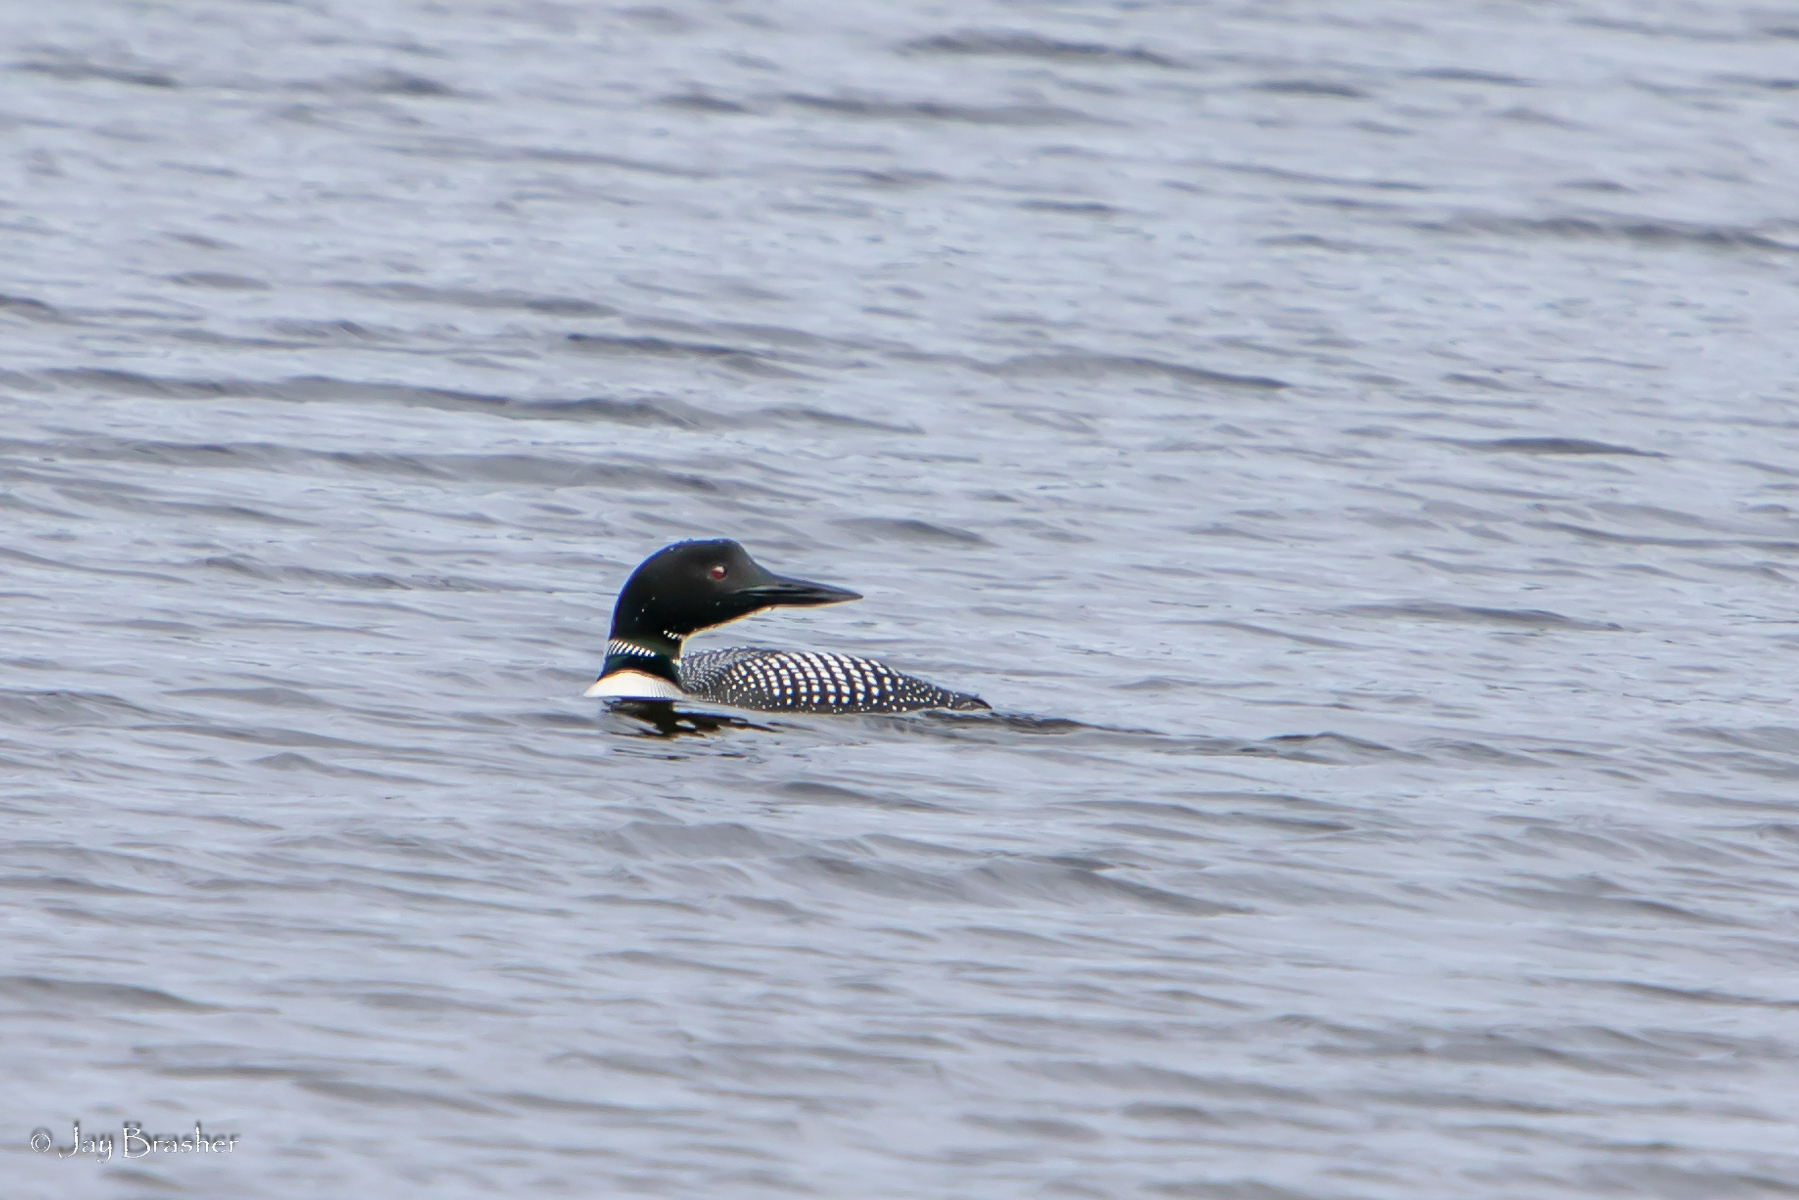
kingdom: Animalia
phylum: Chordata
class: Aves
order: Gaviiformes
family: Gaviidae
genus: Gavia
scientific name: Gavia immer
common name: Common loon
